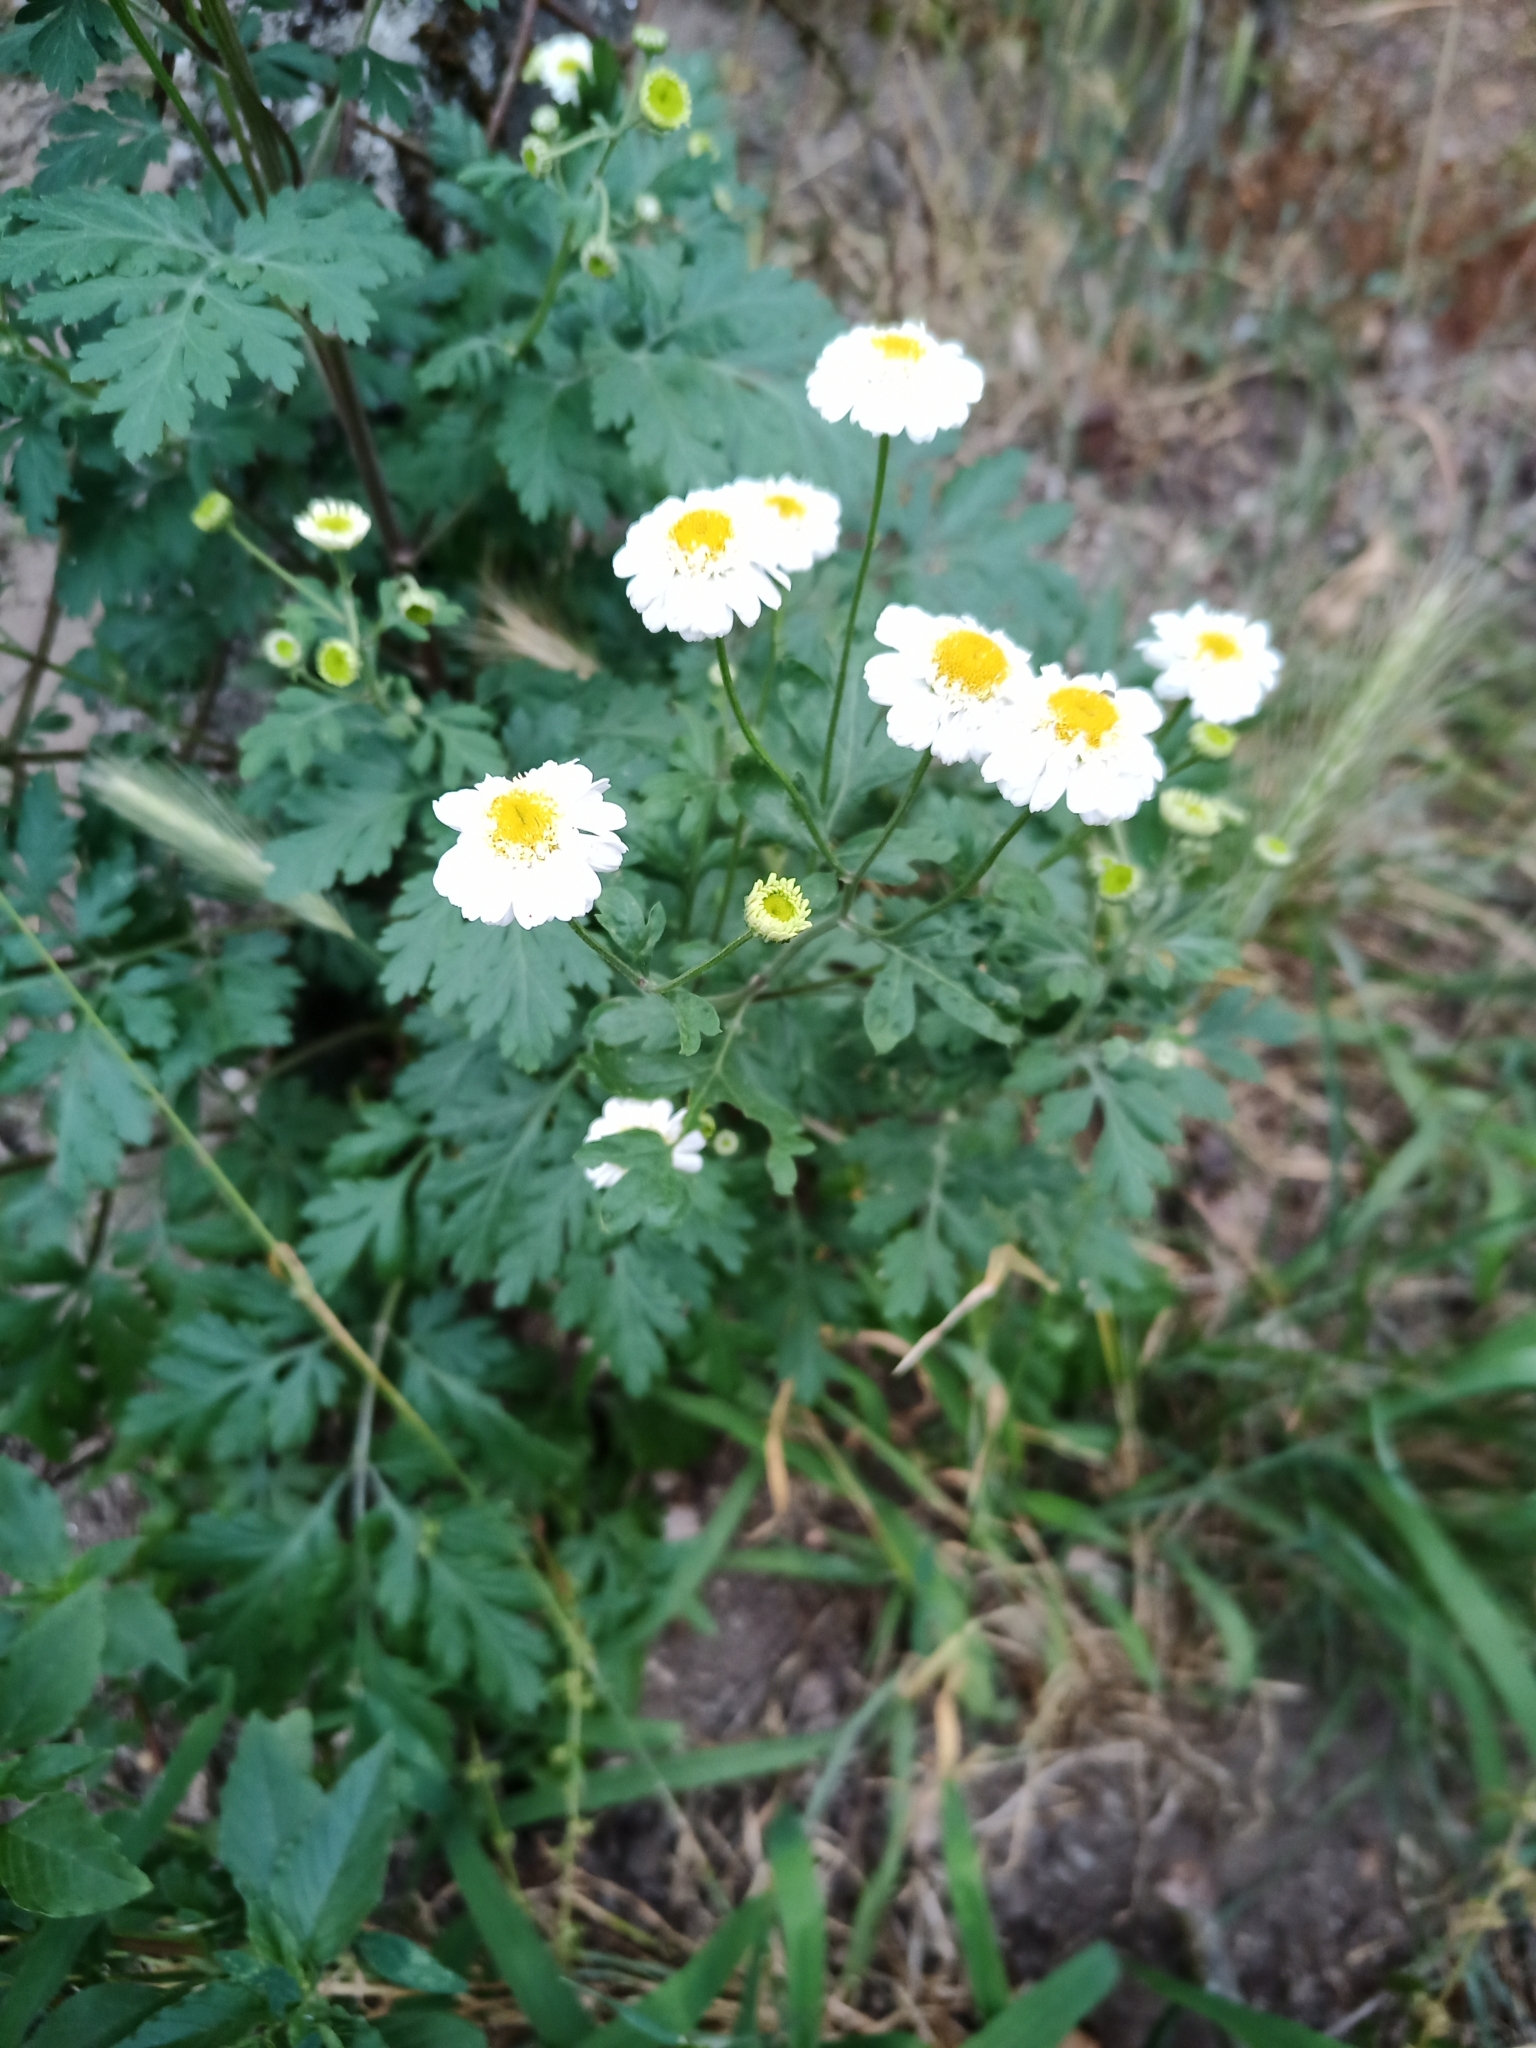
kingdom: Plantae
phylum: Tracheophyta
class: Magnoliopsida
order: Asterales
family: Asteraceae
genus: Tanacetum
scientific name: Tanacetum parthenium
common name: Feverfew
